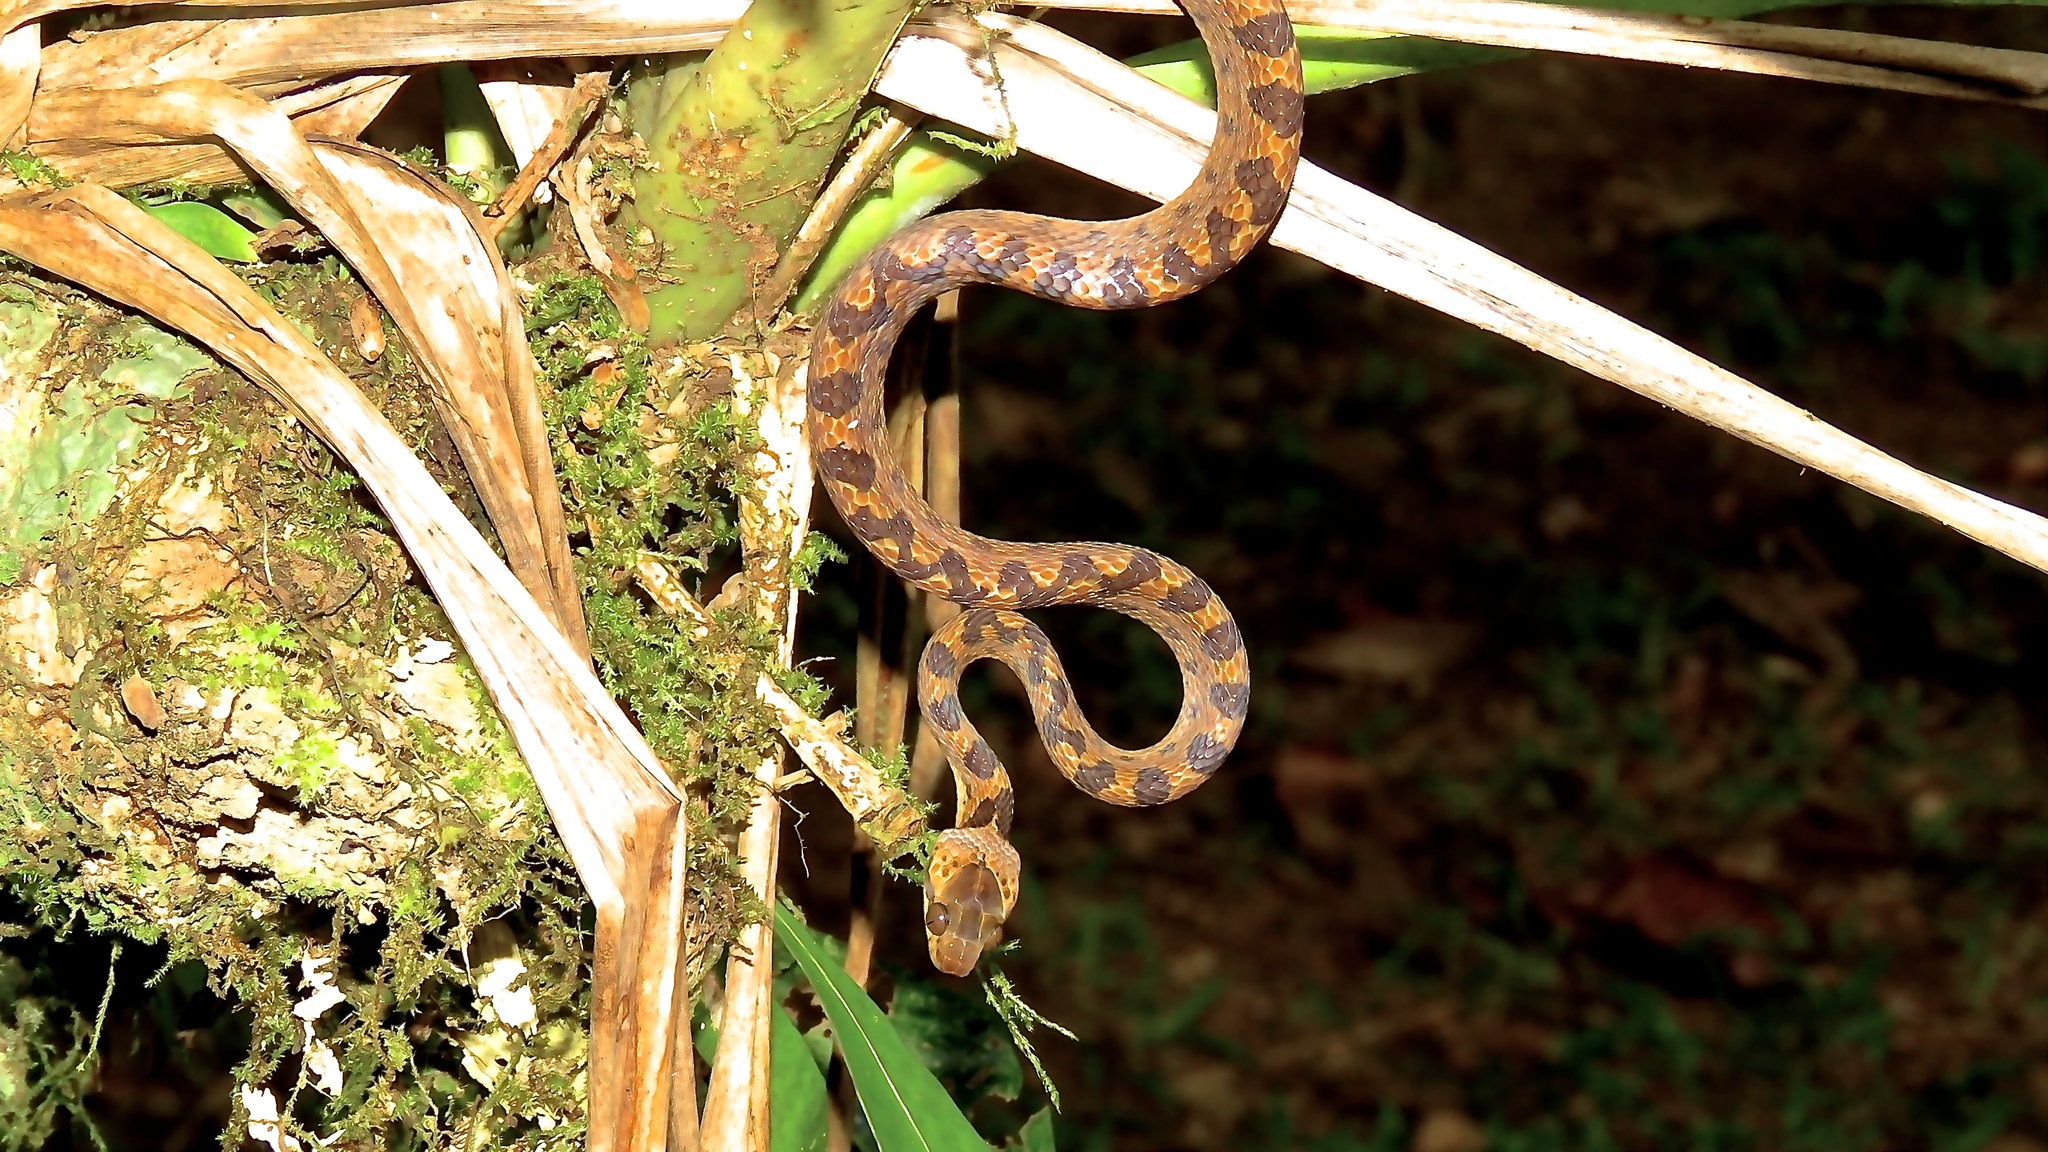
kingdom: Animalia
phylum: Chordata
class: Squamata
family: Colubridae
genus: Leptodeira
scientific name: Leptodeira ornata
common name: Northern cat-eyed snake
